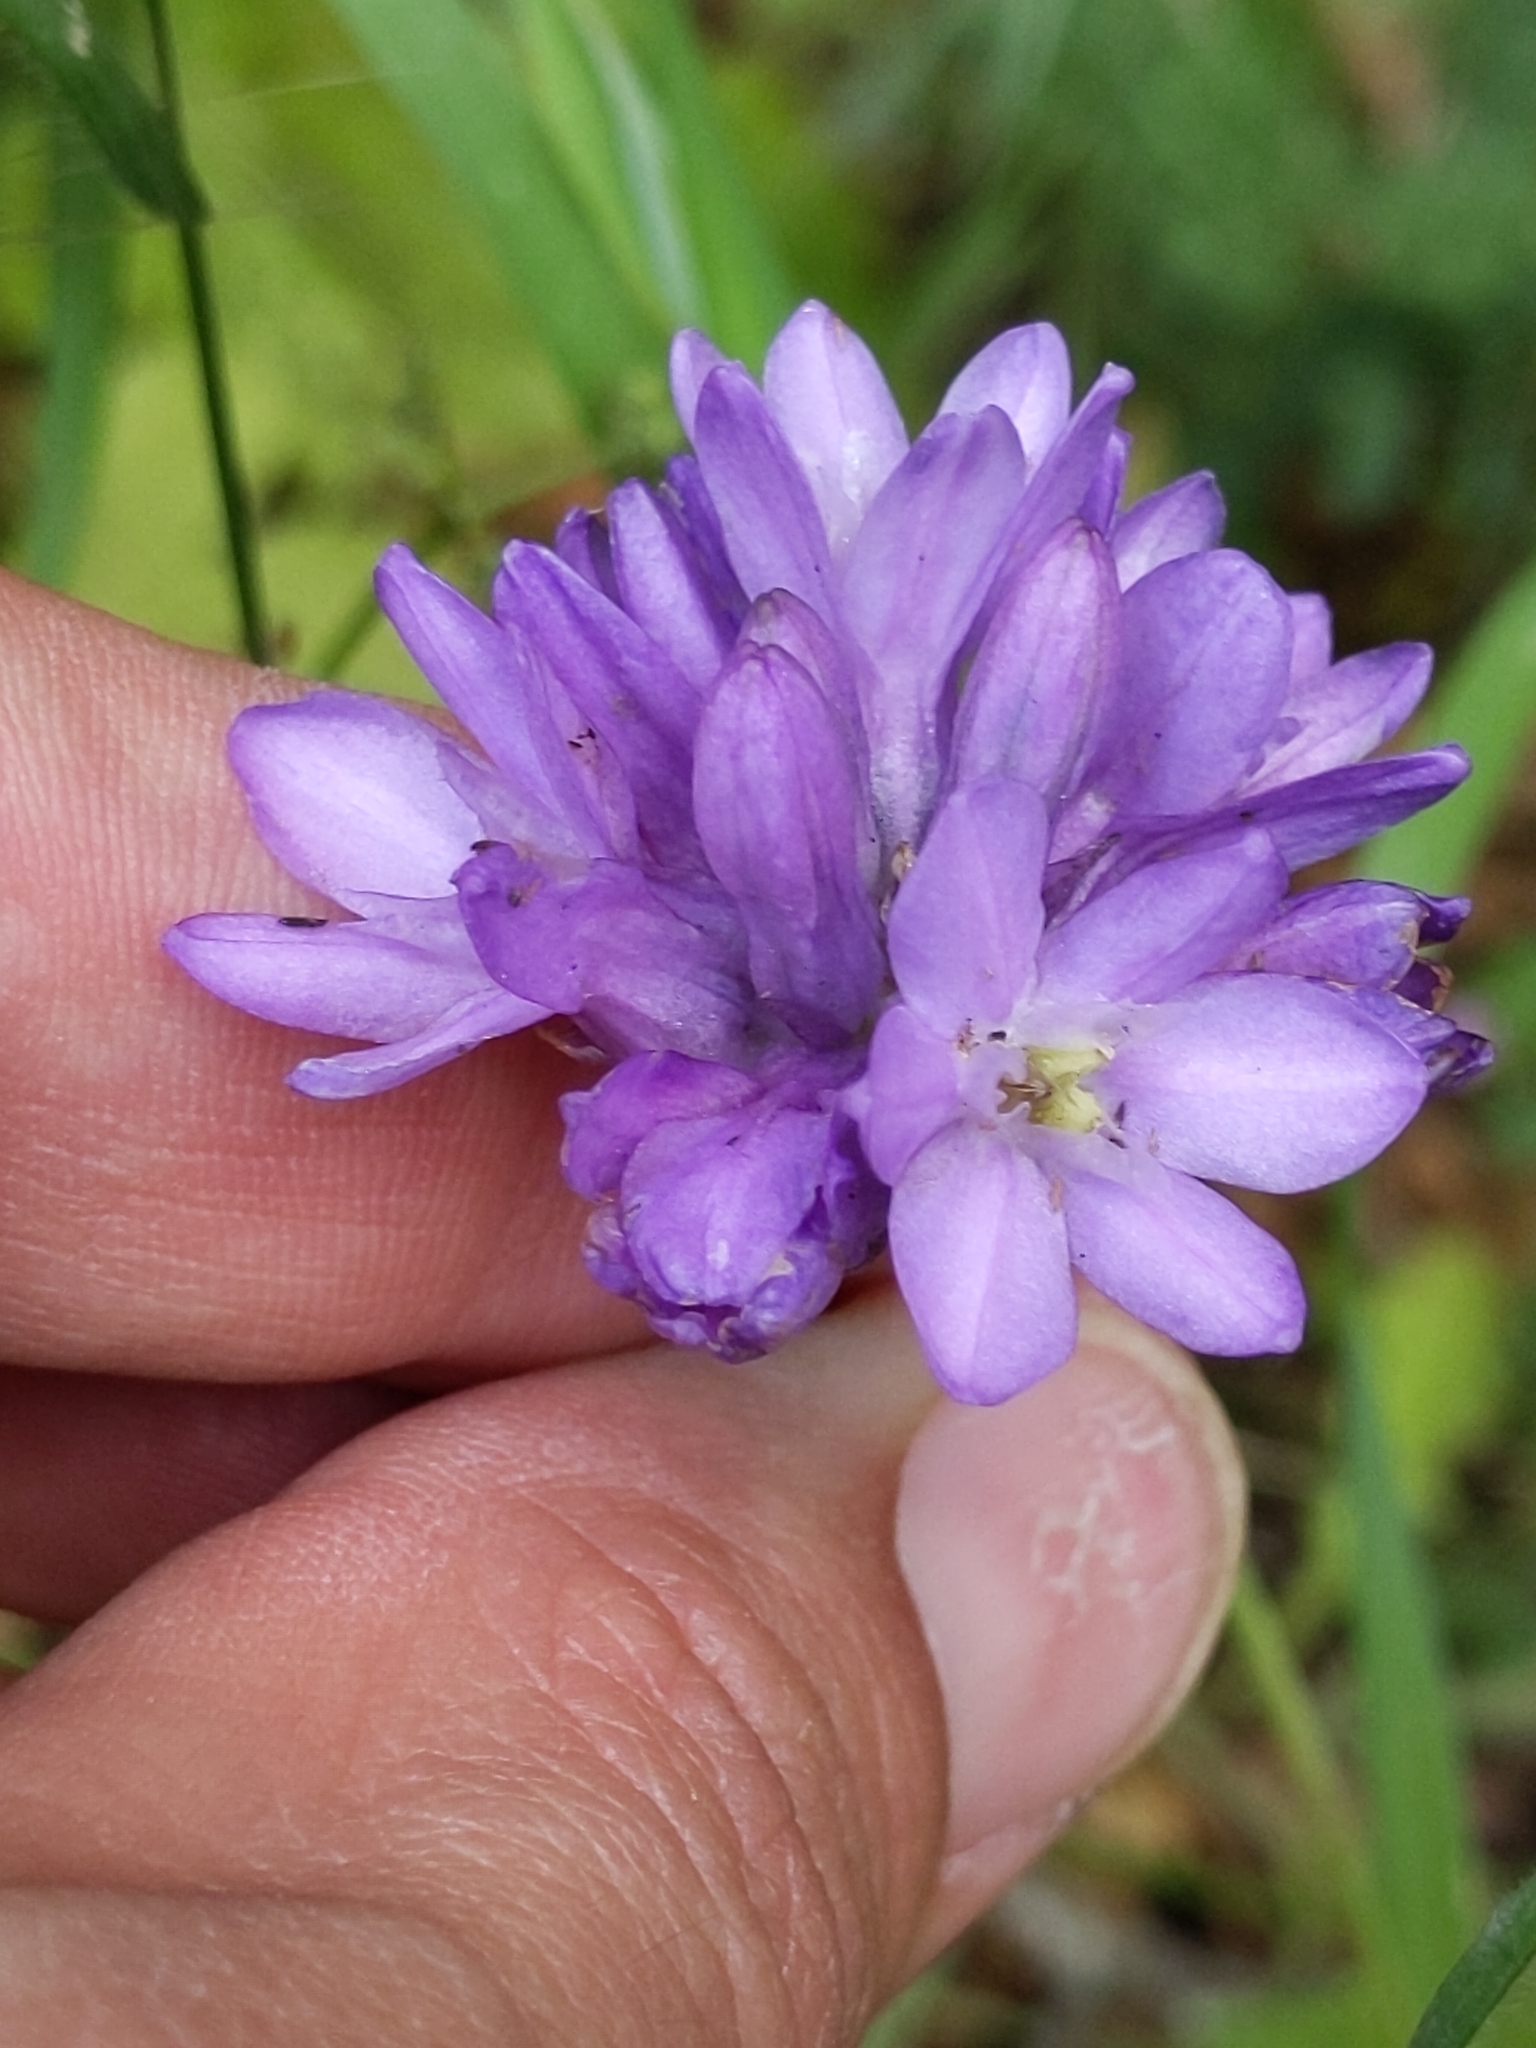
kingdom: Plantae
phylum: Tracheophyta
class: Liliopsida
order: Asparagales
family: Asparagaceae
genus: Dichelostemma
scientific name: Dichelostemma congestum
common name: Fork-tooth ookow
